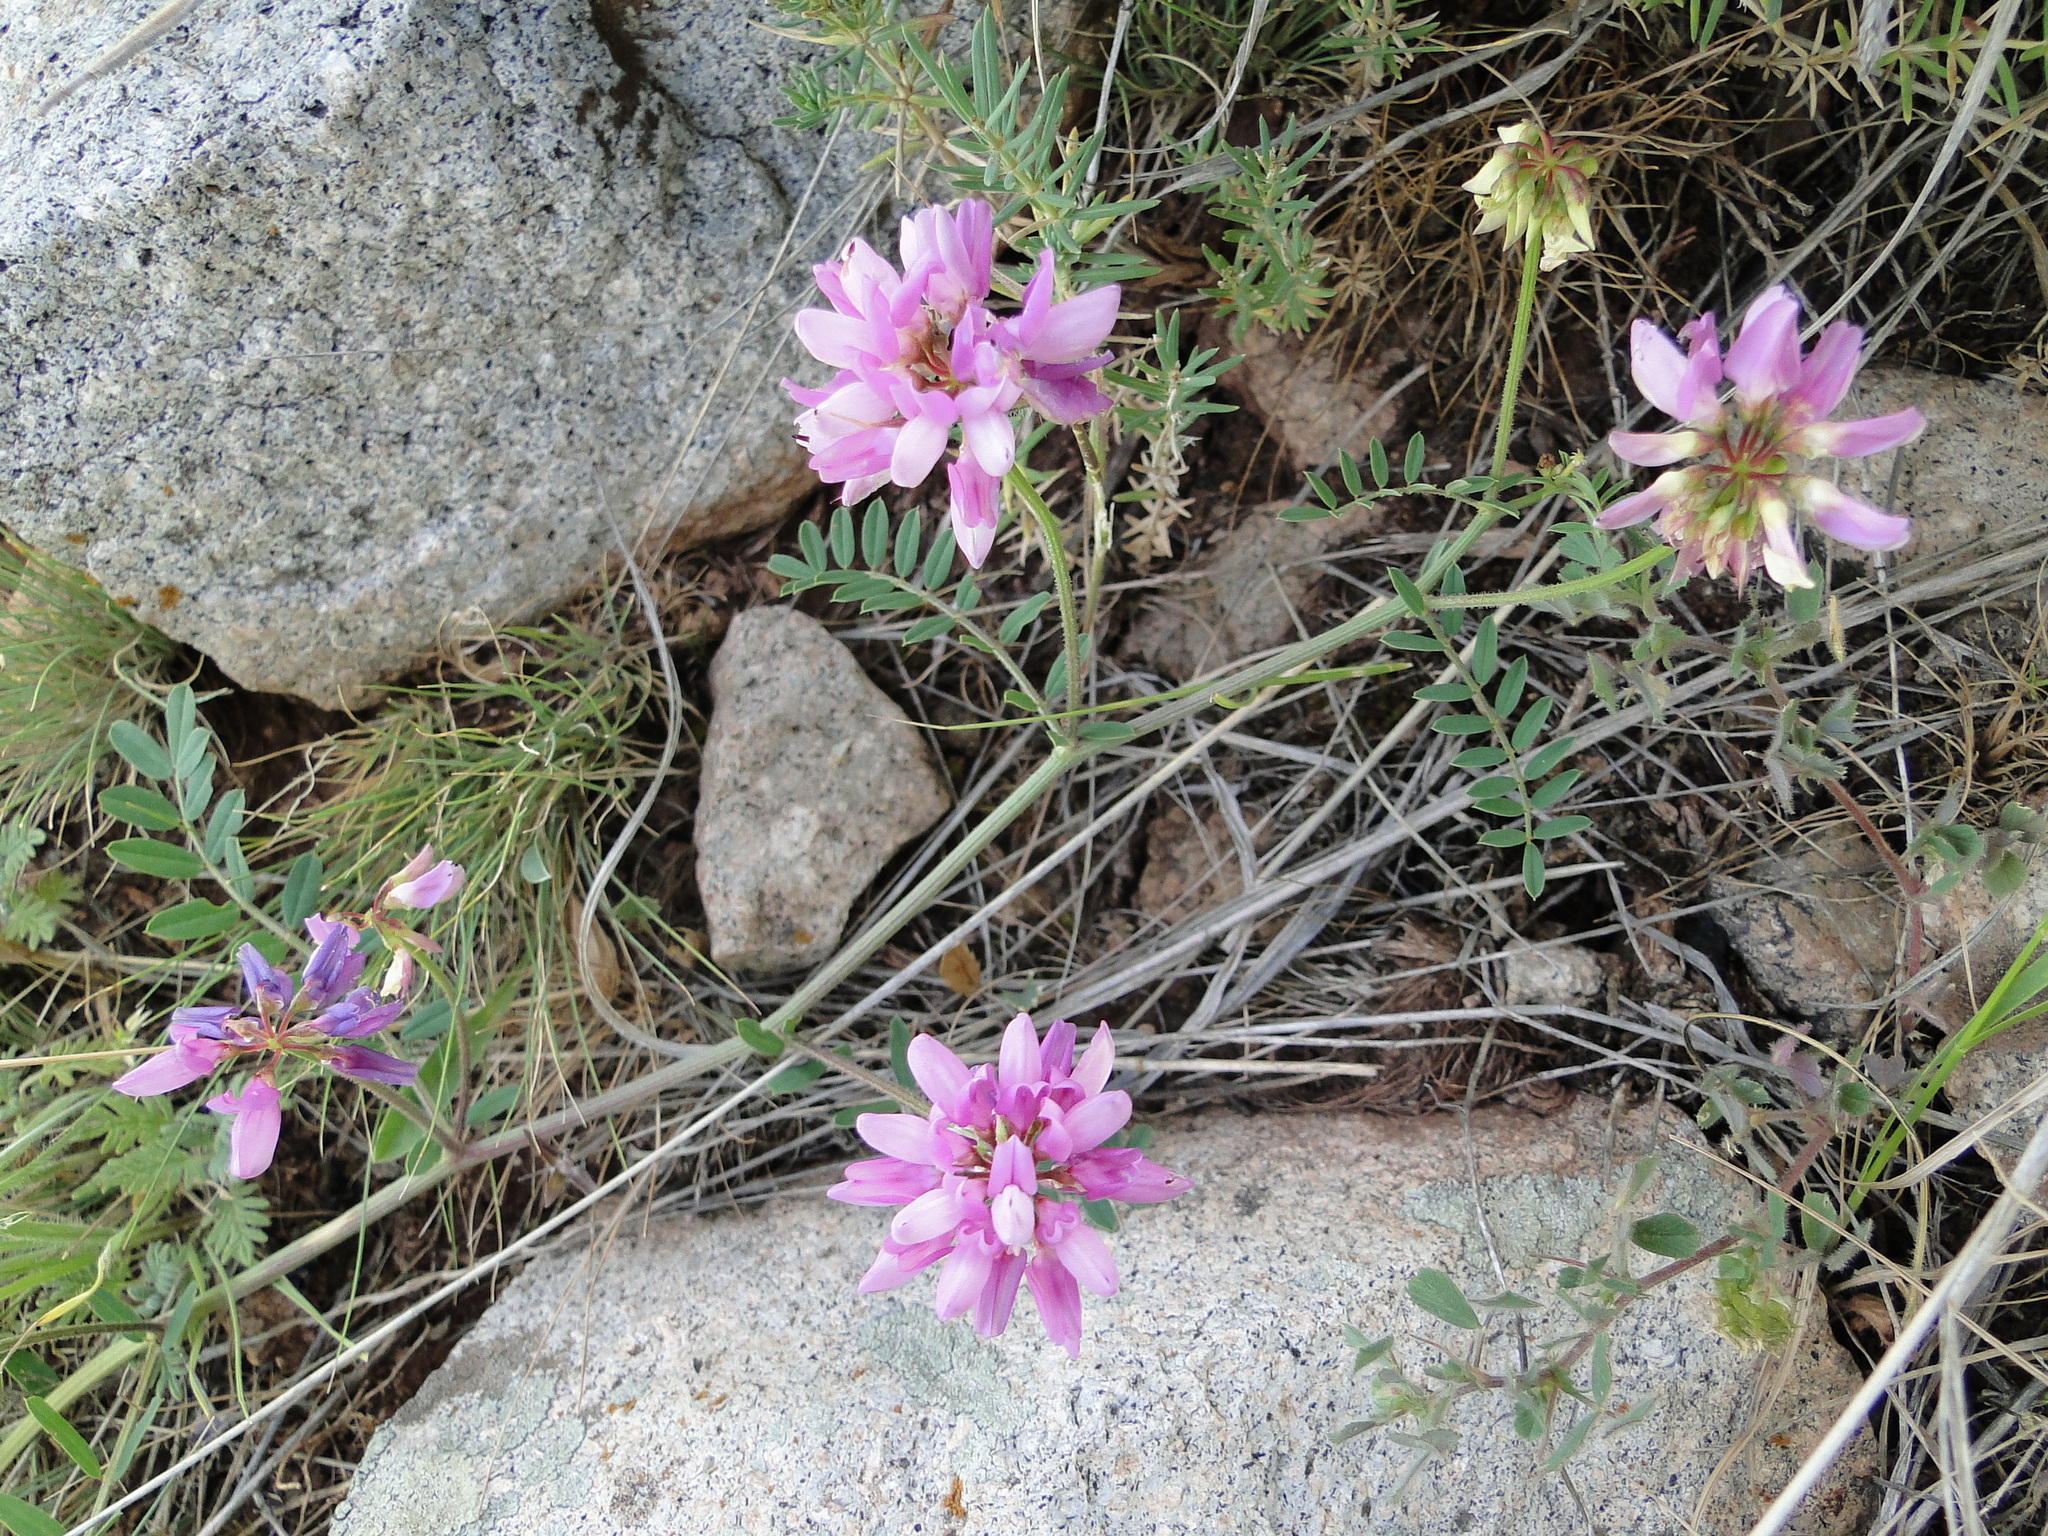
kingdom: Plantae
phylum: Tracheophyta
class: Magnoliopsida
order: Fabales
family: Fabaceae
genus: Coronilla
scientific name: Coronilla varia
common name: Crownvetch
